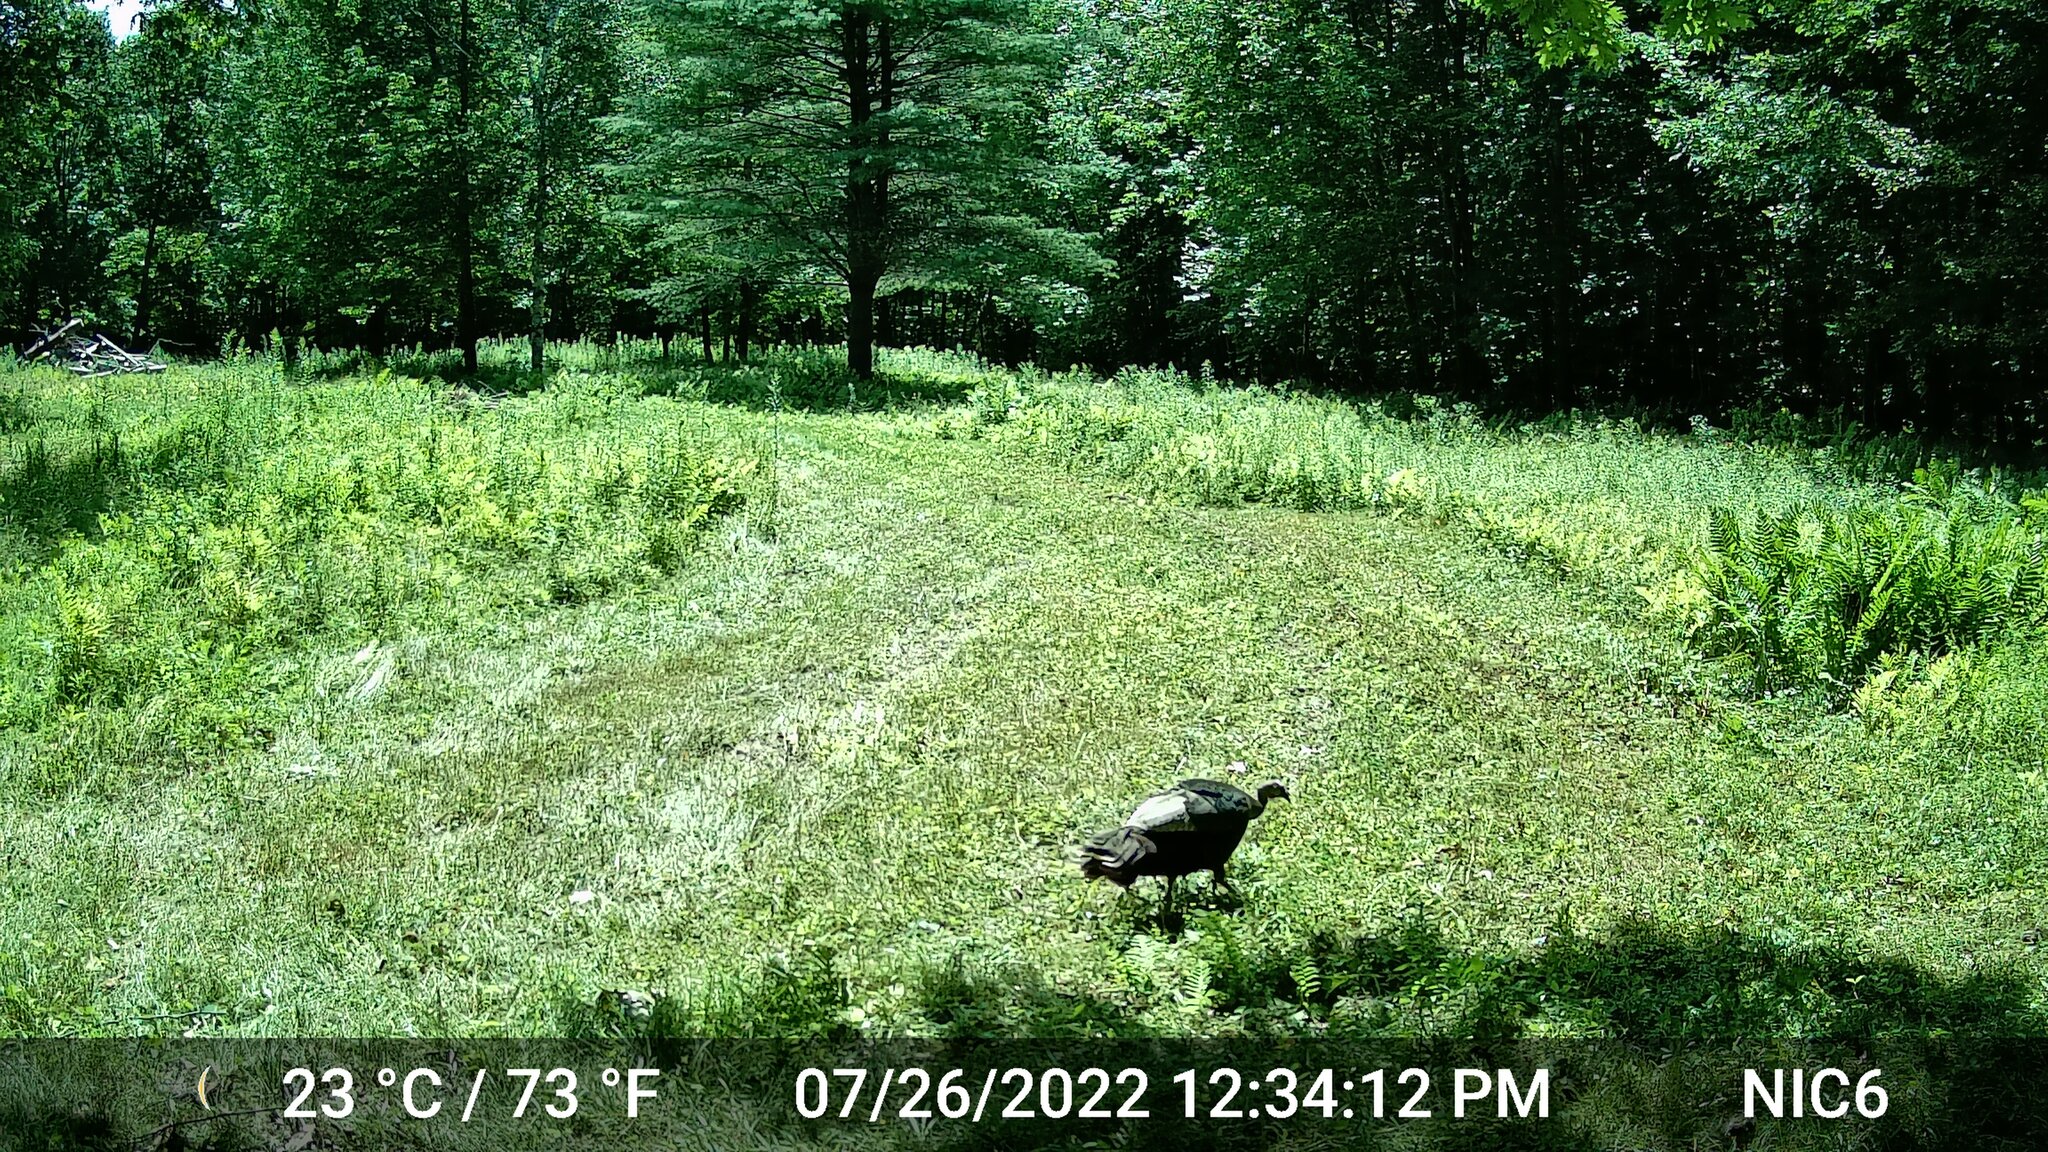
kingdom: Animalia
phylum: Chordata
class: Aves
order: Galliformes
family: Phasianidae
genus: Meleagris
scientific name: Meleagris gallopavo
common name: Wild turkey
